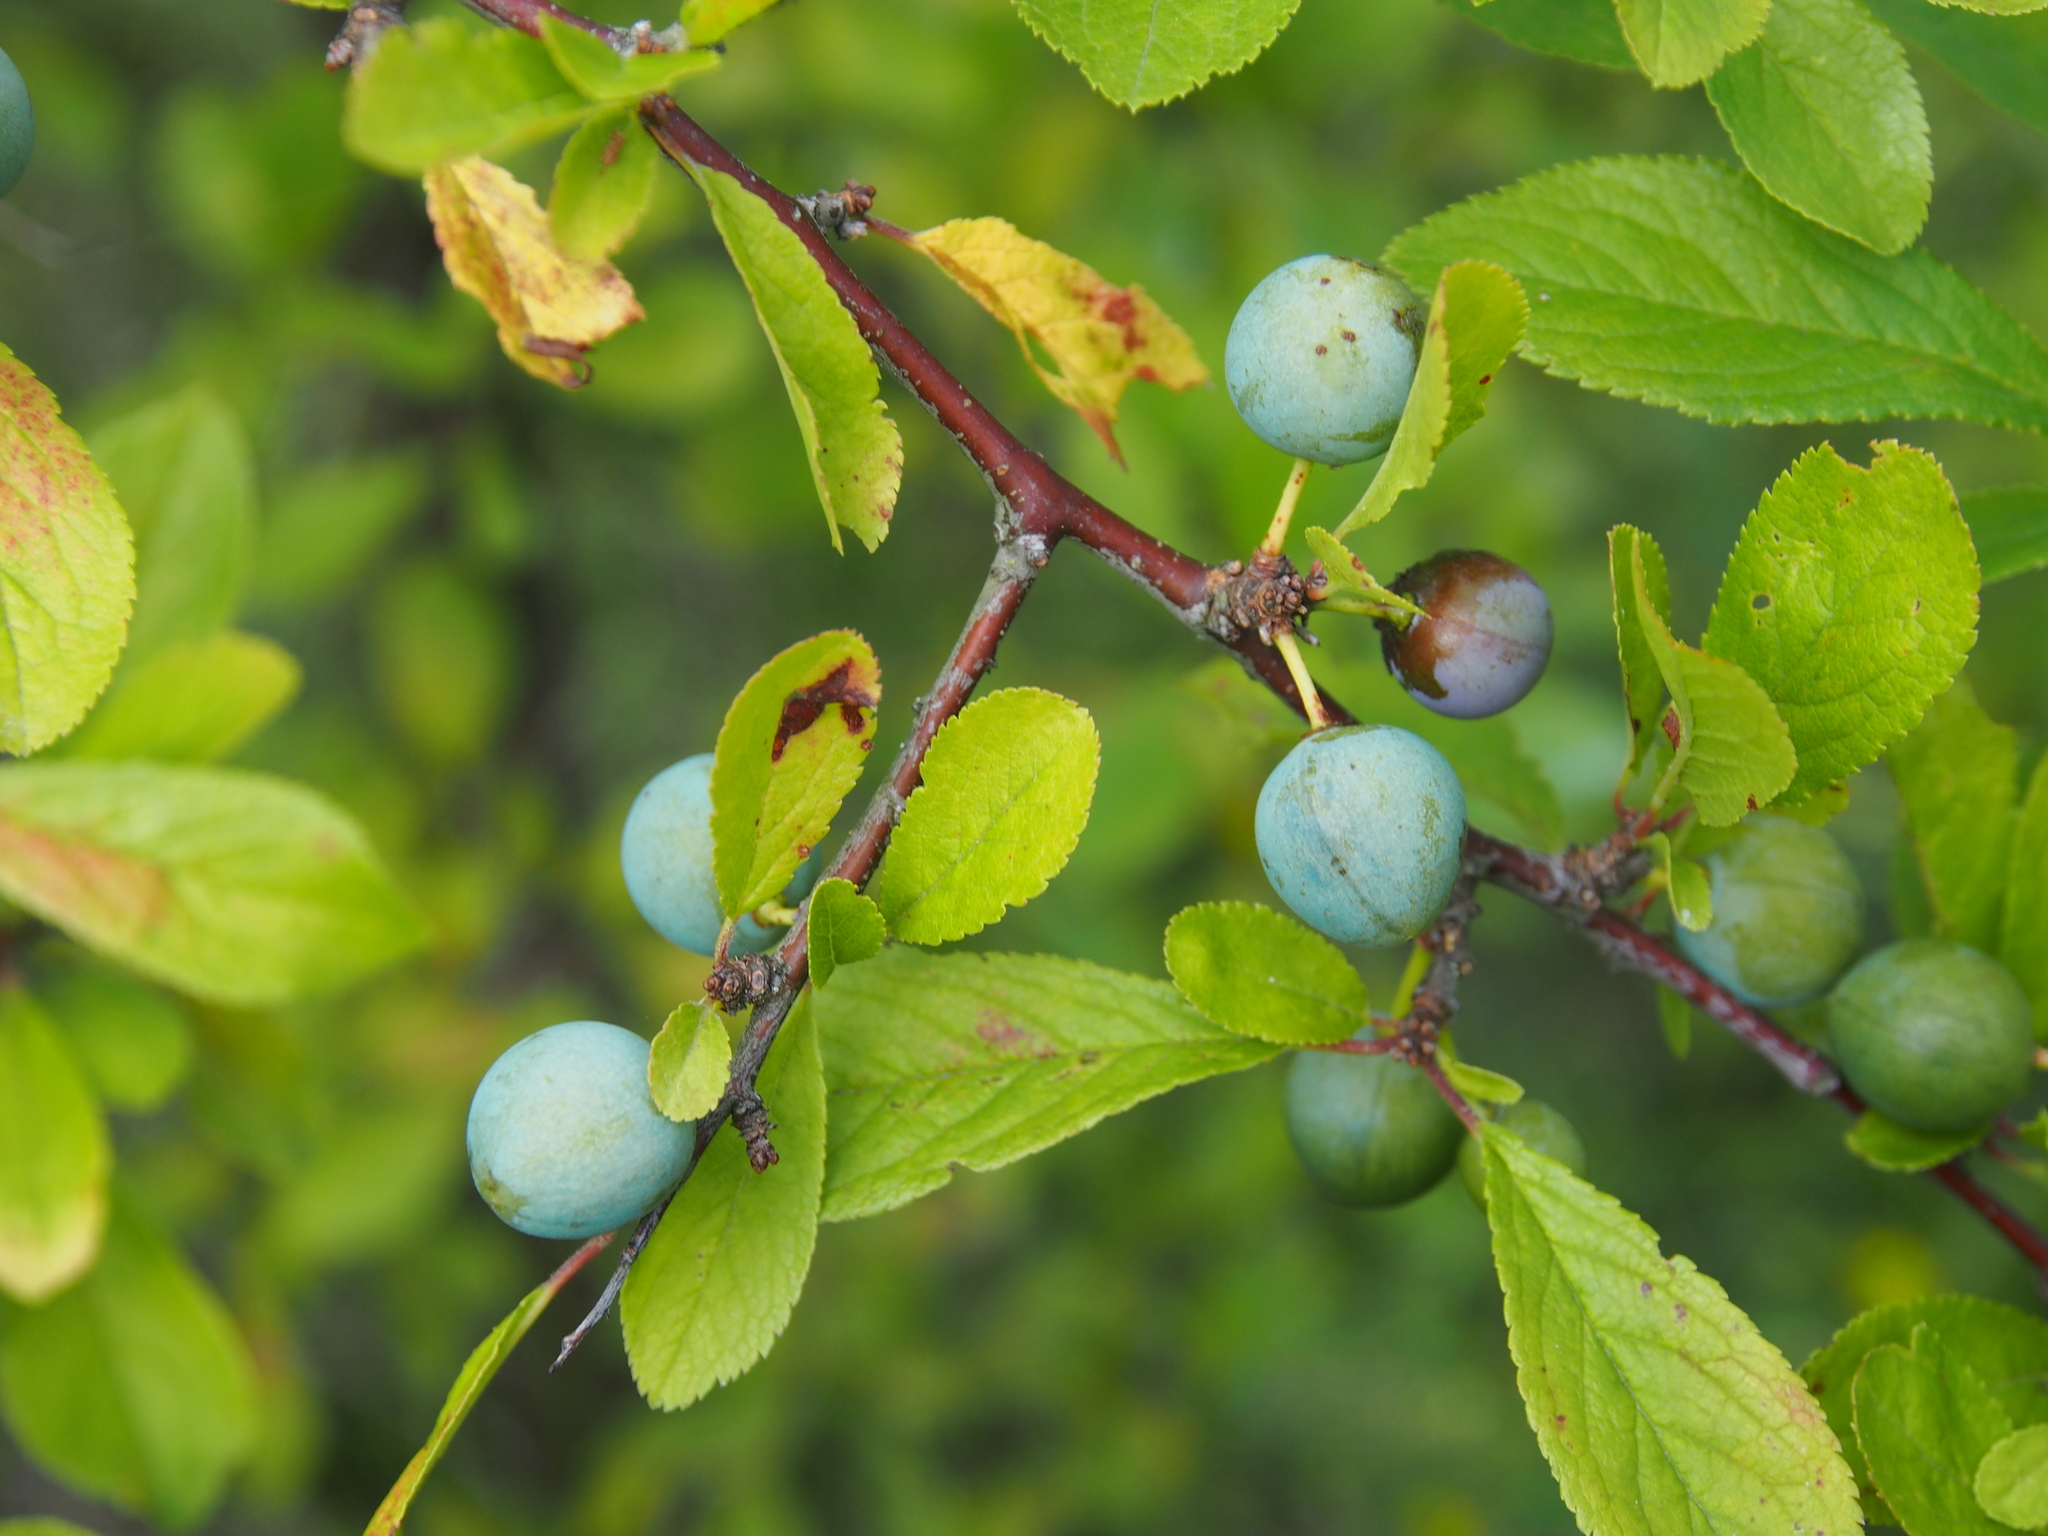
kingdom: Plantae
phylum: Tracheophyta
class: Magnoliopsida
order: Rosales
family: Rosaceae
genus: Prunus
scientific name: Prunus spinosa
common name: Blackthorn
